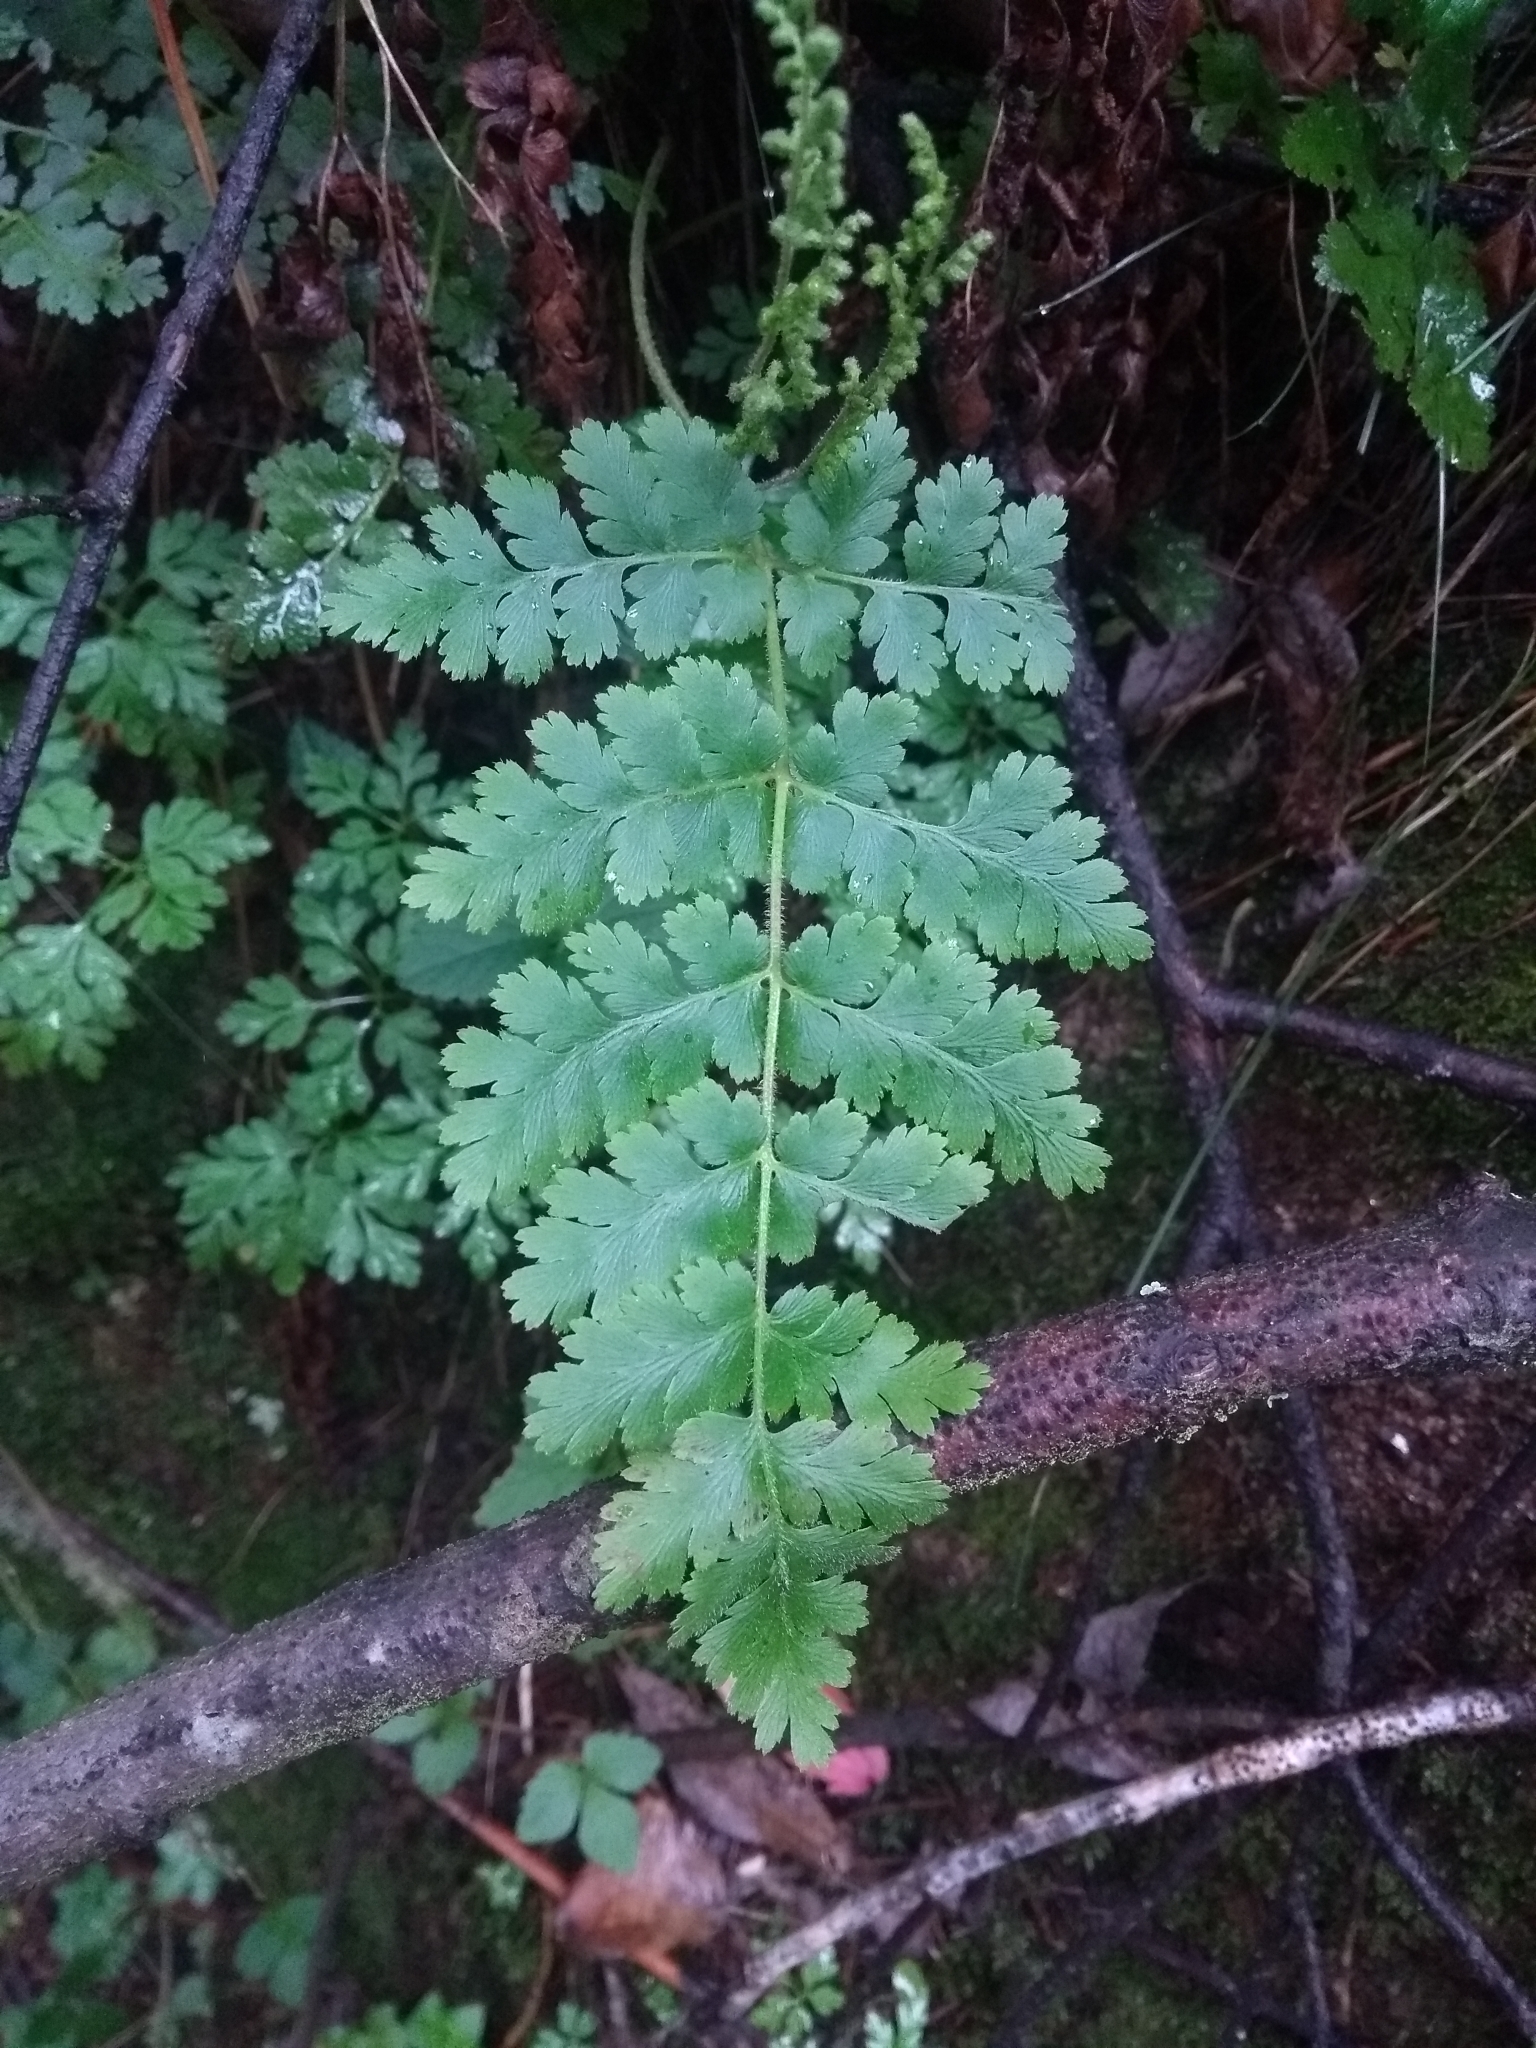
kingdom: Plantae
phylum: Tracheophyta
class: Polypodiopsida
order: Schizaeales
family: Anemiaceae
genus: Anemia
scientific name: Anemia australis
